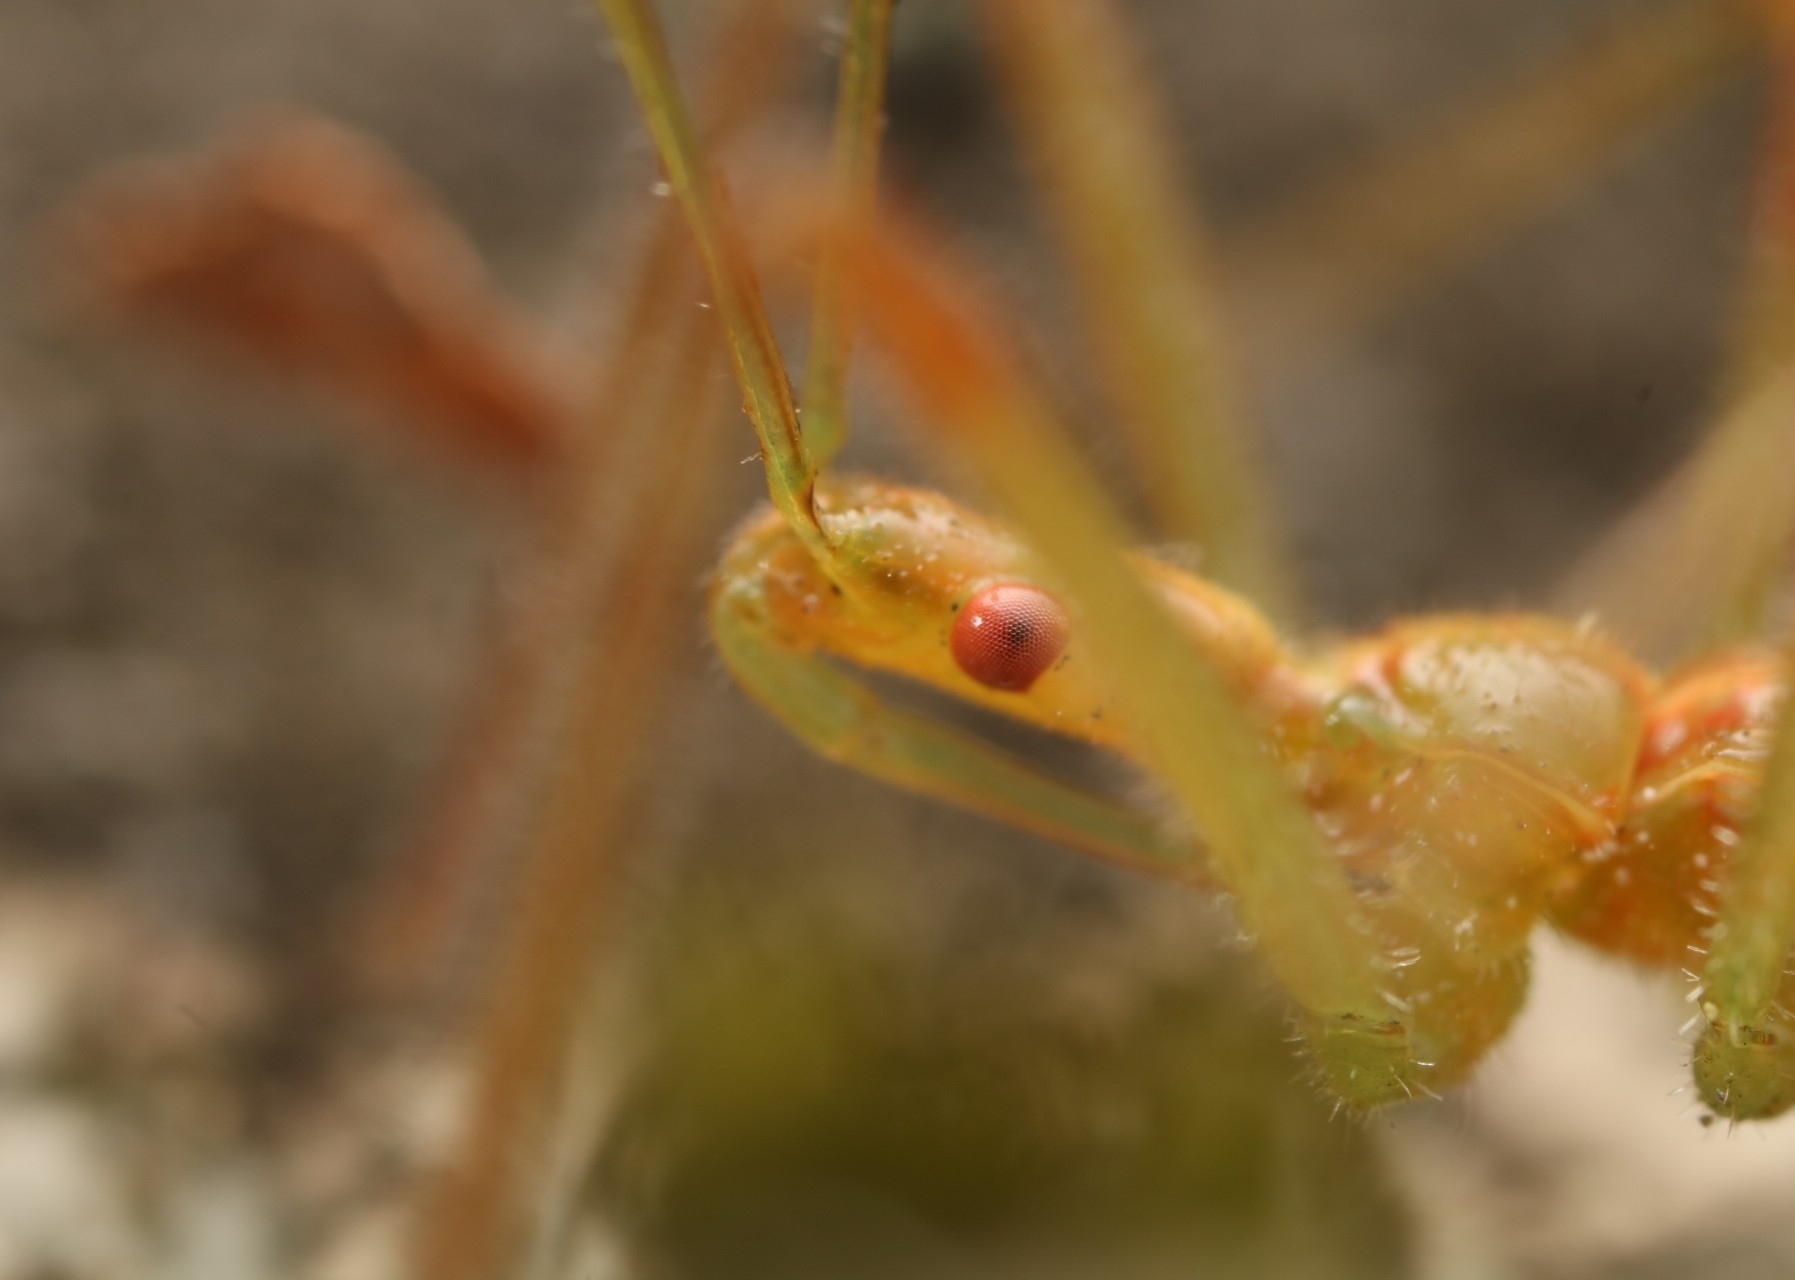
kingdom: Animalia
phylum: Arthropoda
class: Insecta
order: Hemiptera
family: Reduviidae
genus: Zelus
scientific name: Zelus luridus
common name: Pale green assassin bug
